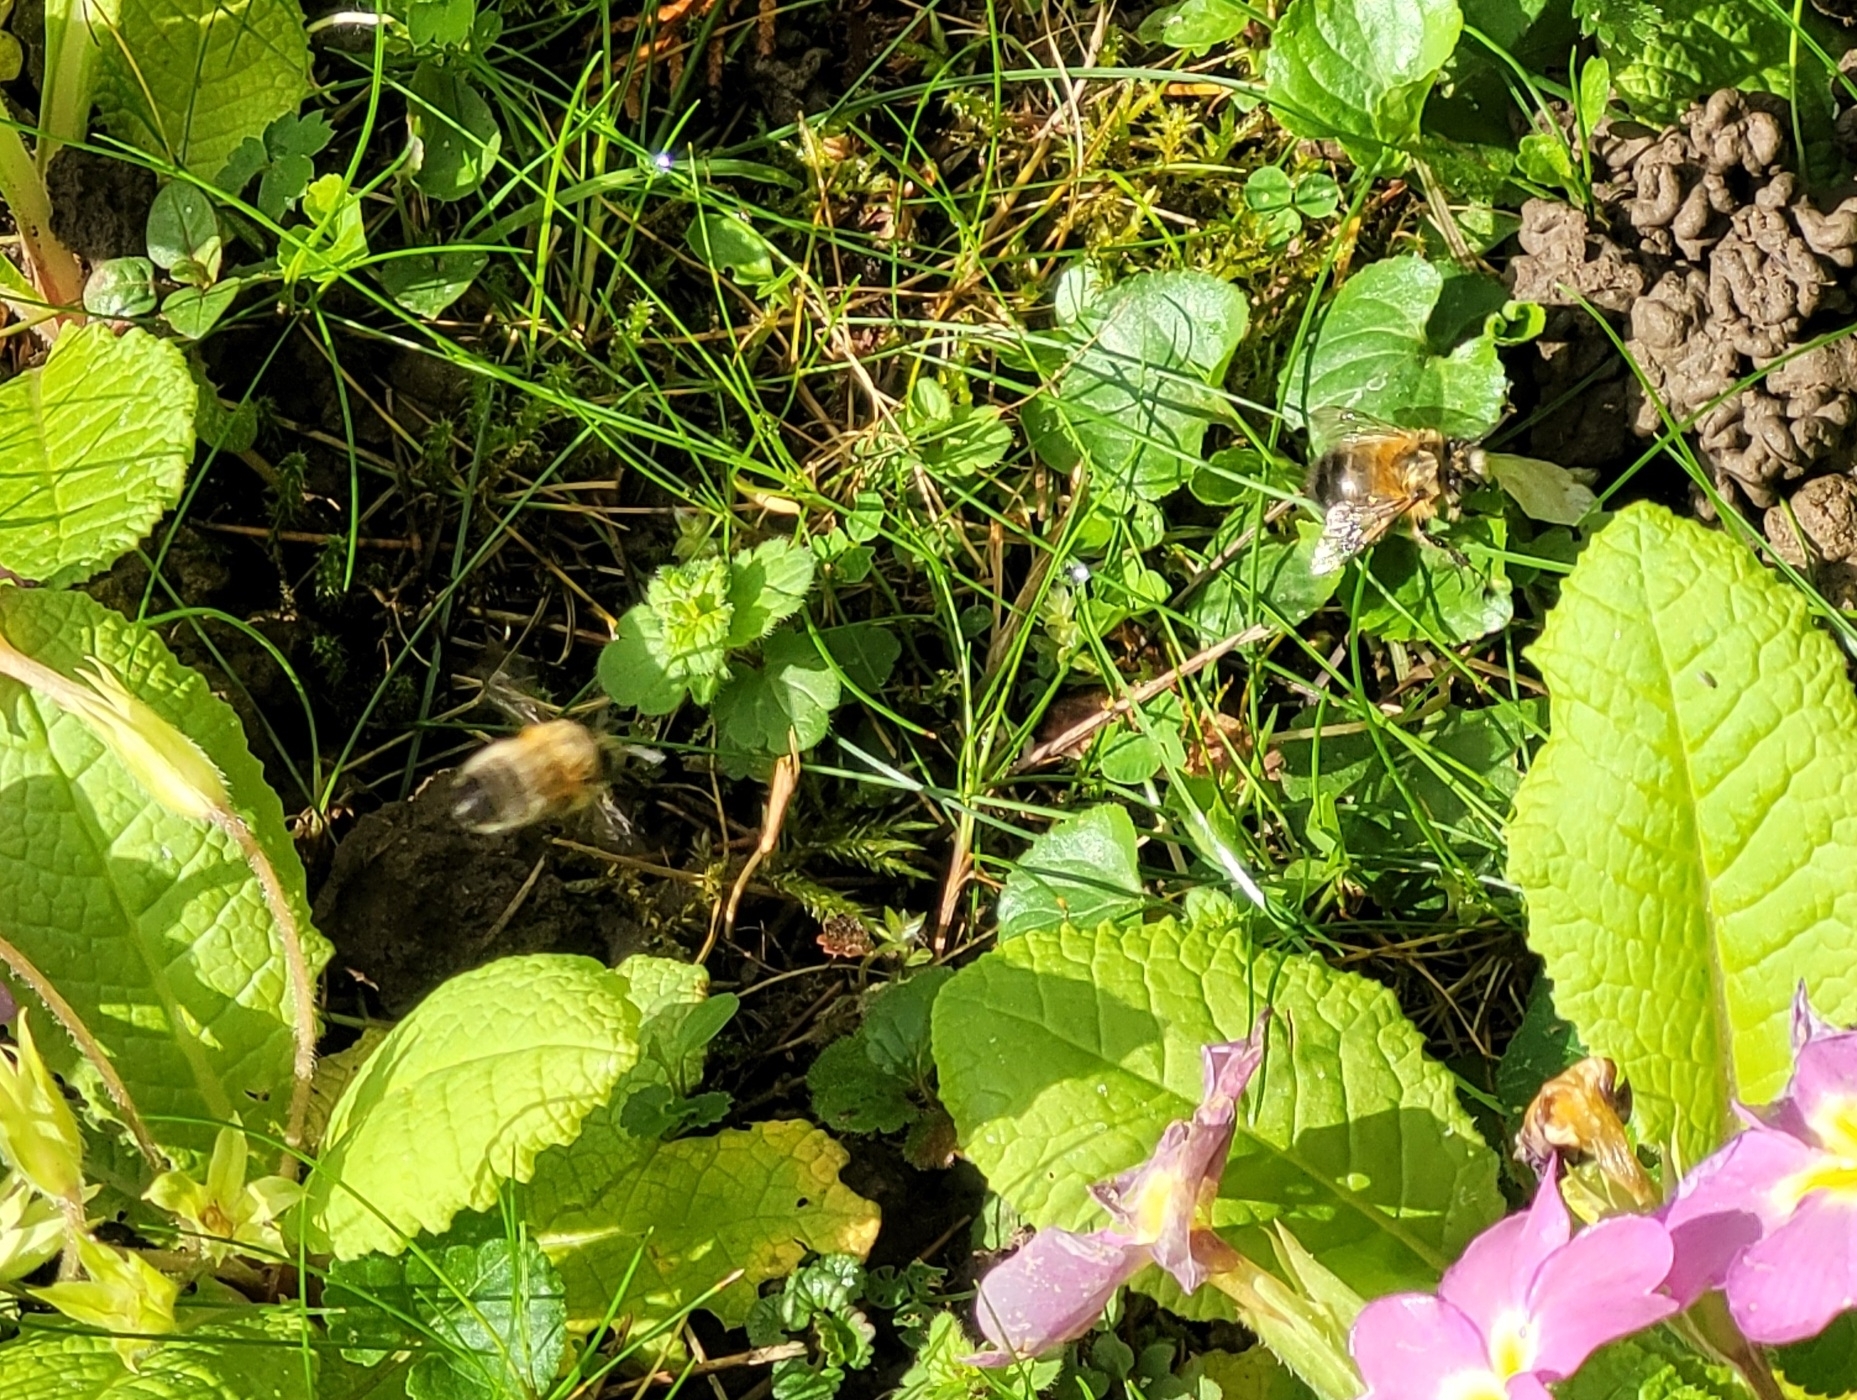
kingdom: Animalia
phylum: Arthropoda
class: Insecta
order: Hymenoptera
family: Apidae
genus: Anthophora
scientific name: Anthophora plumipes
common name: Hairy-footed flower bee
